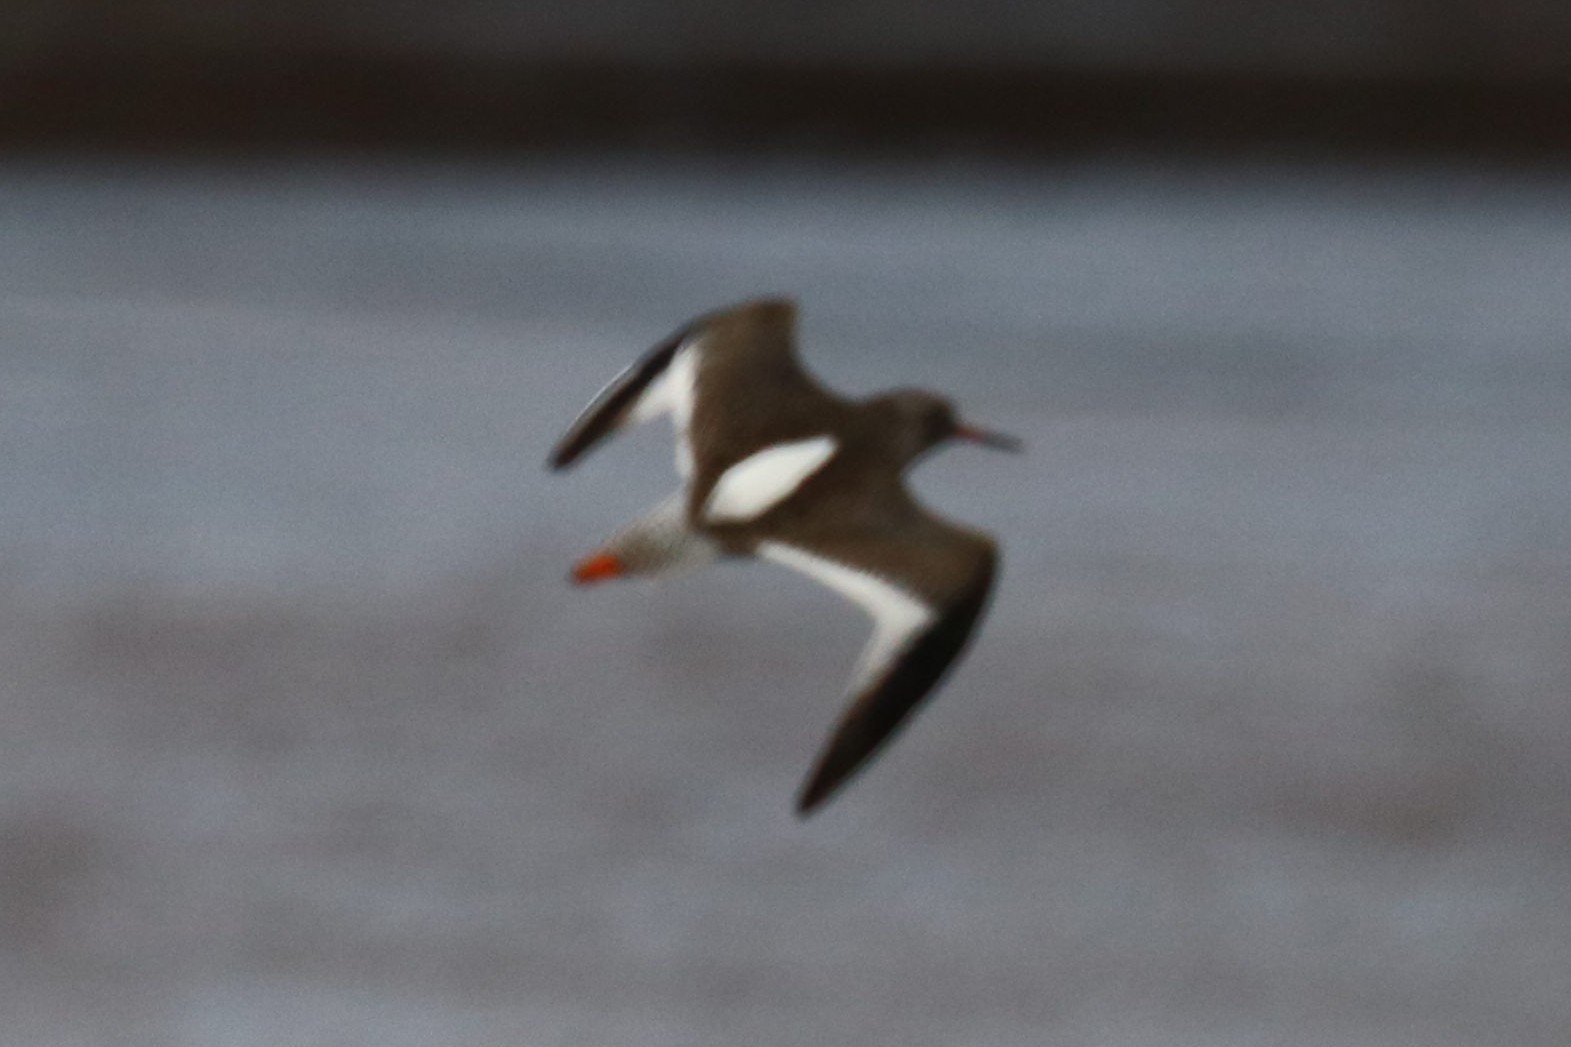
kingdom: Animalia
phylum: Chordata
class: Aves
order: Charadriiformes
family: Scolopacidae
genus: Tringa
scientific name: Tringa totanus
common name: Common redshank
